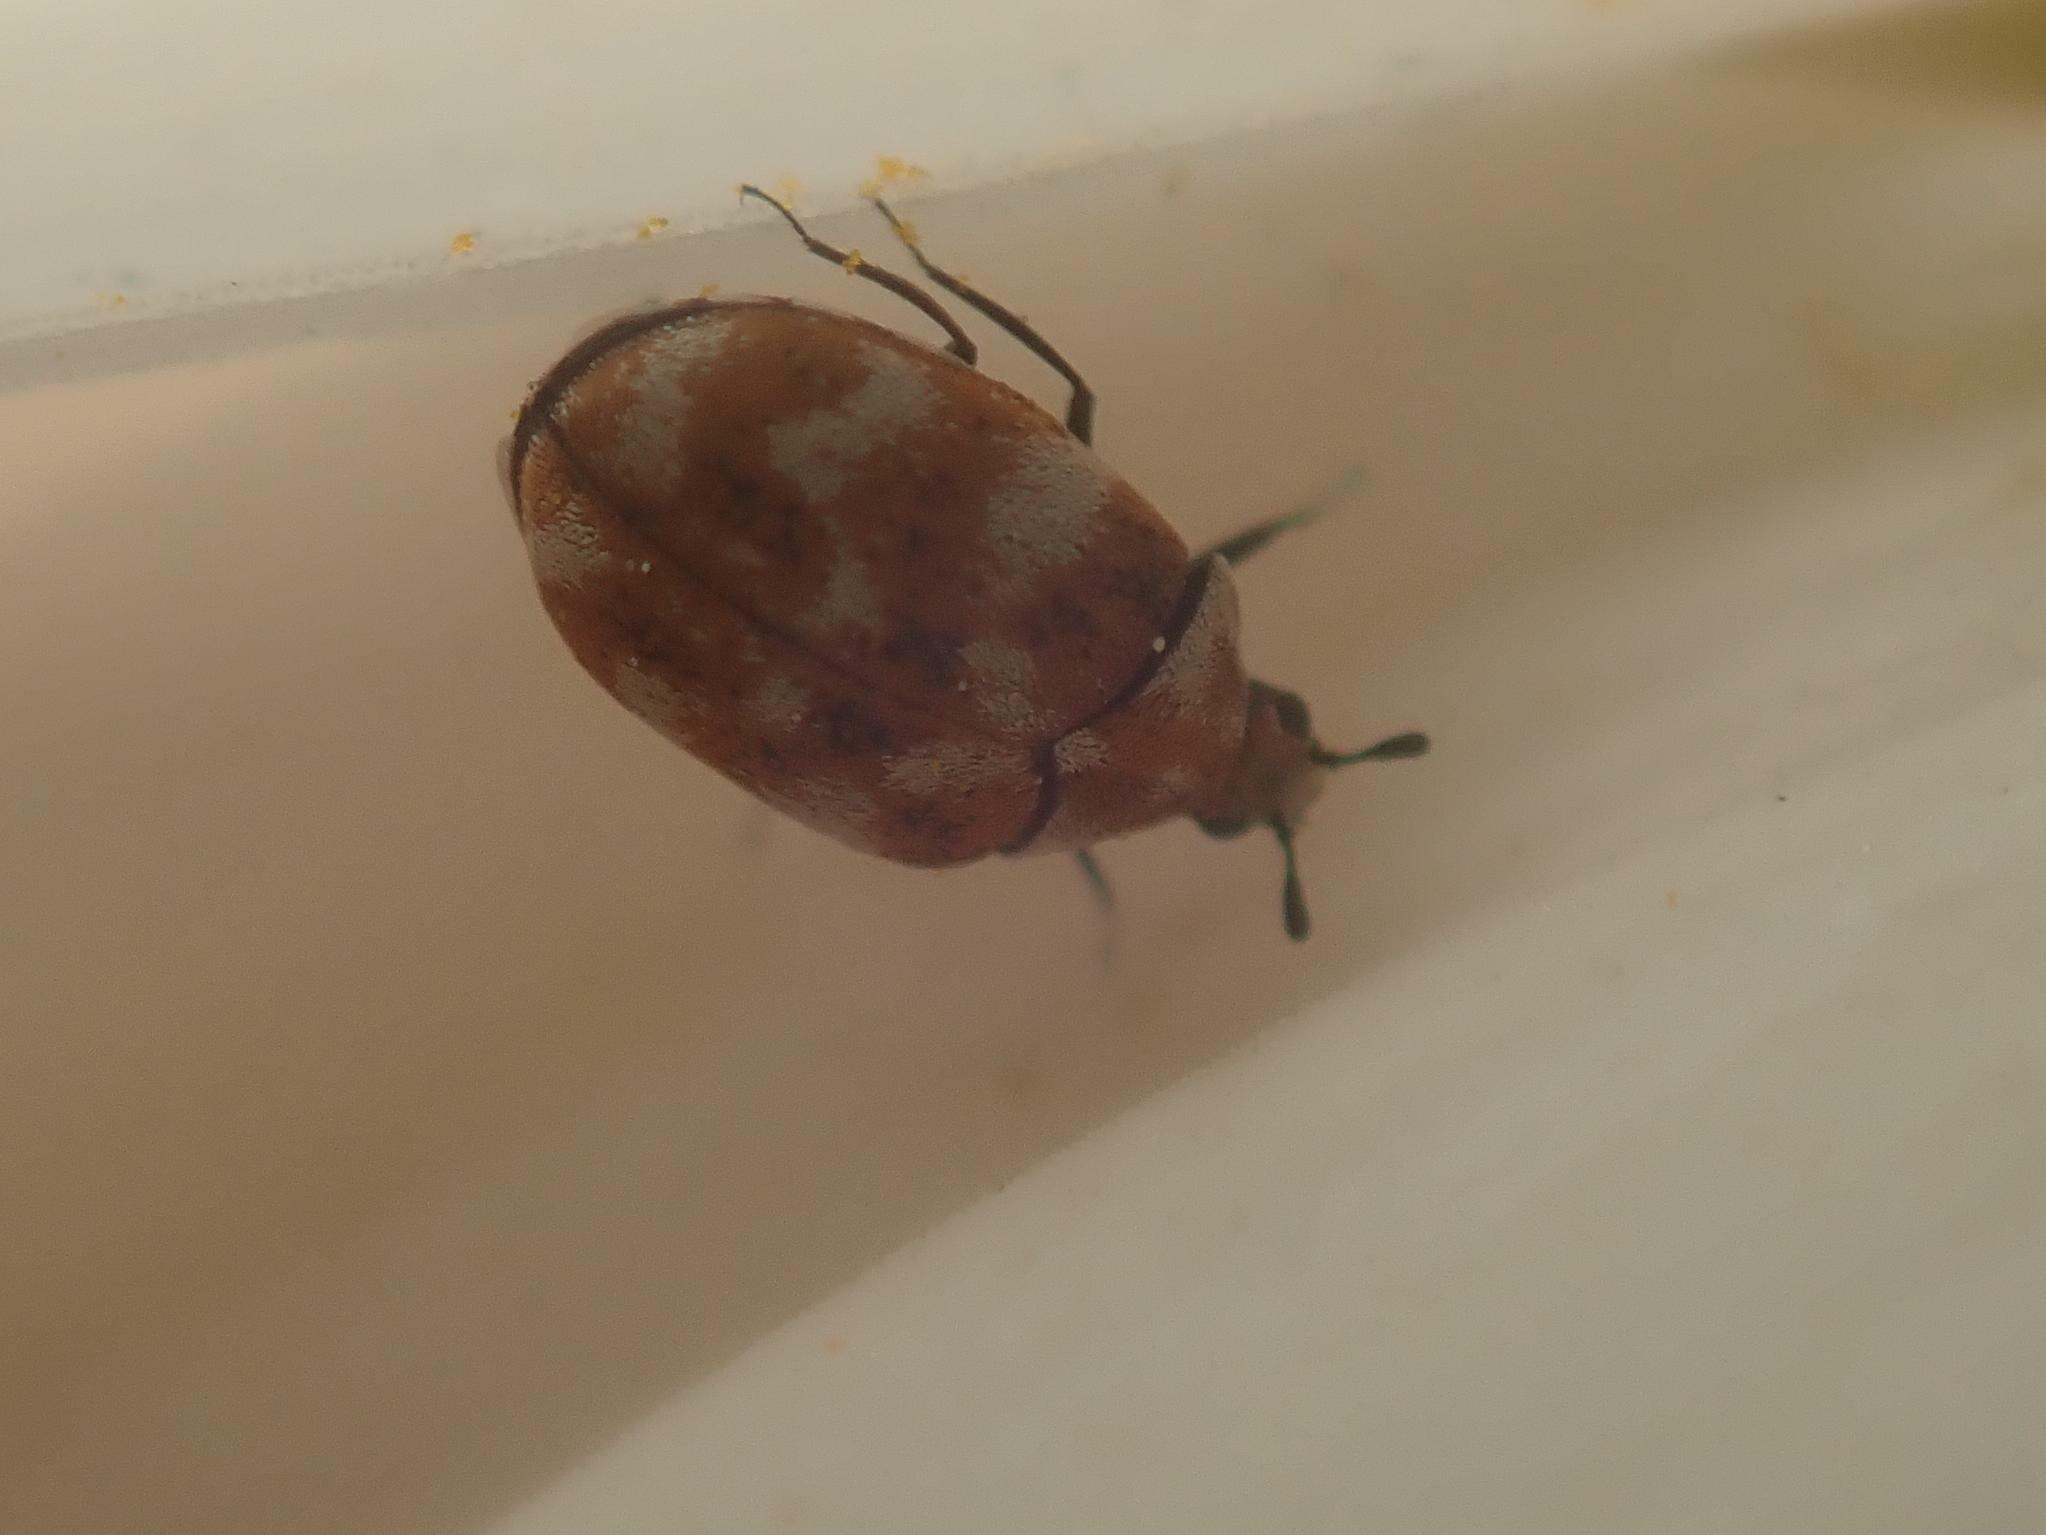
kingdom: Animalia
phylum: Arthropoda
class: Insecta
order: Coleoptera
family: Dermestidae
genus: Anthrenus
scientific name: Anthrenus verbasci
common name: Varied carpet beetle
